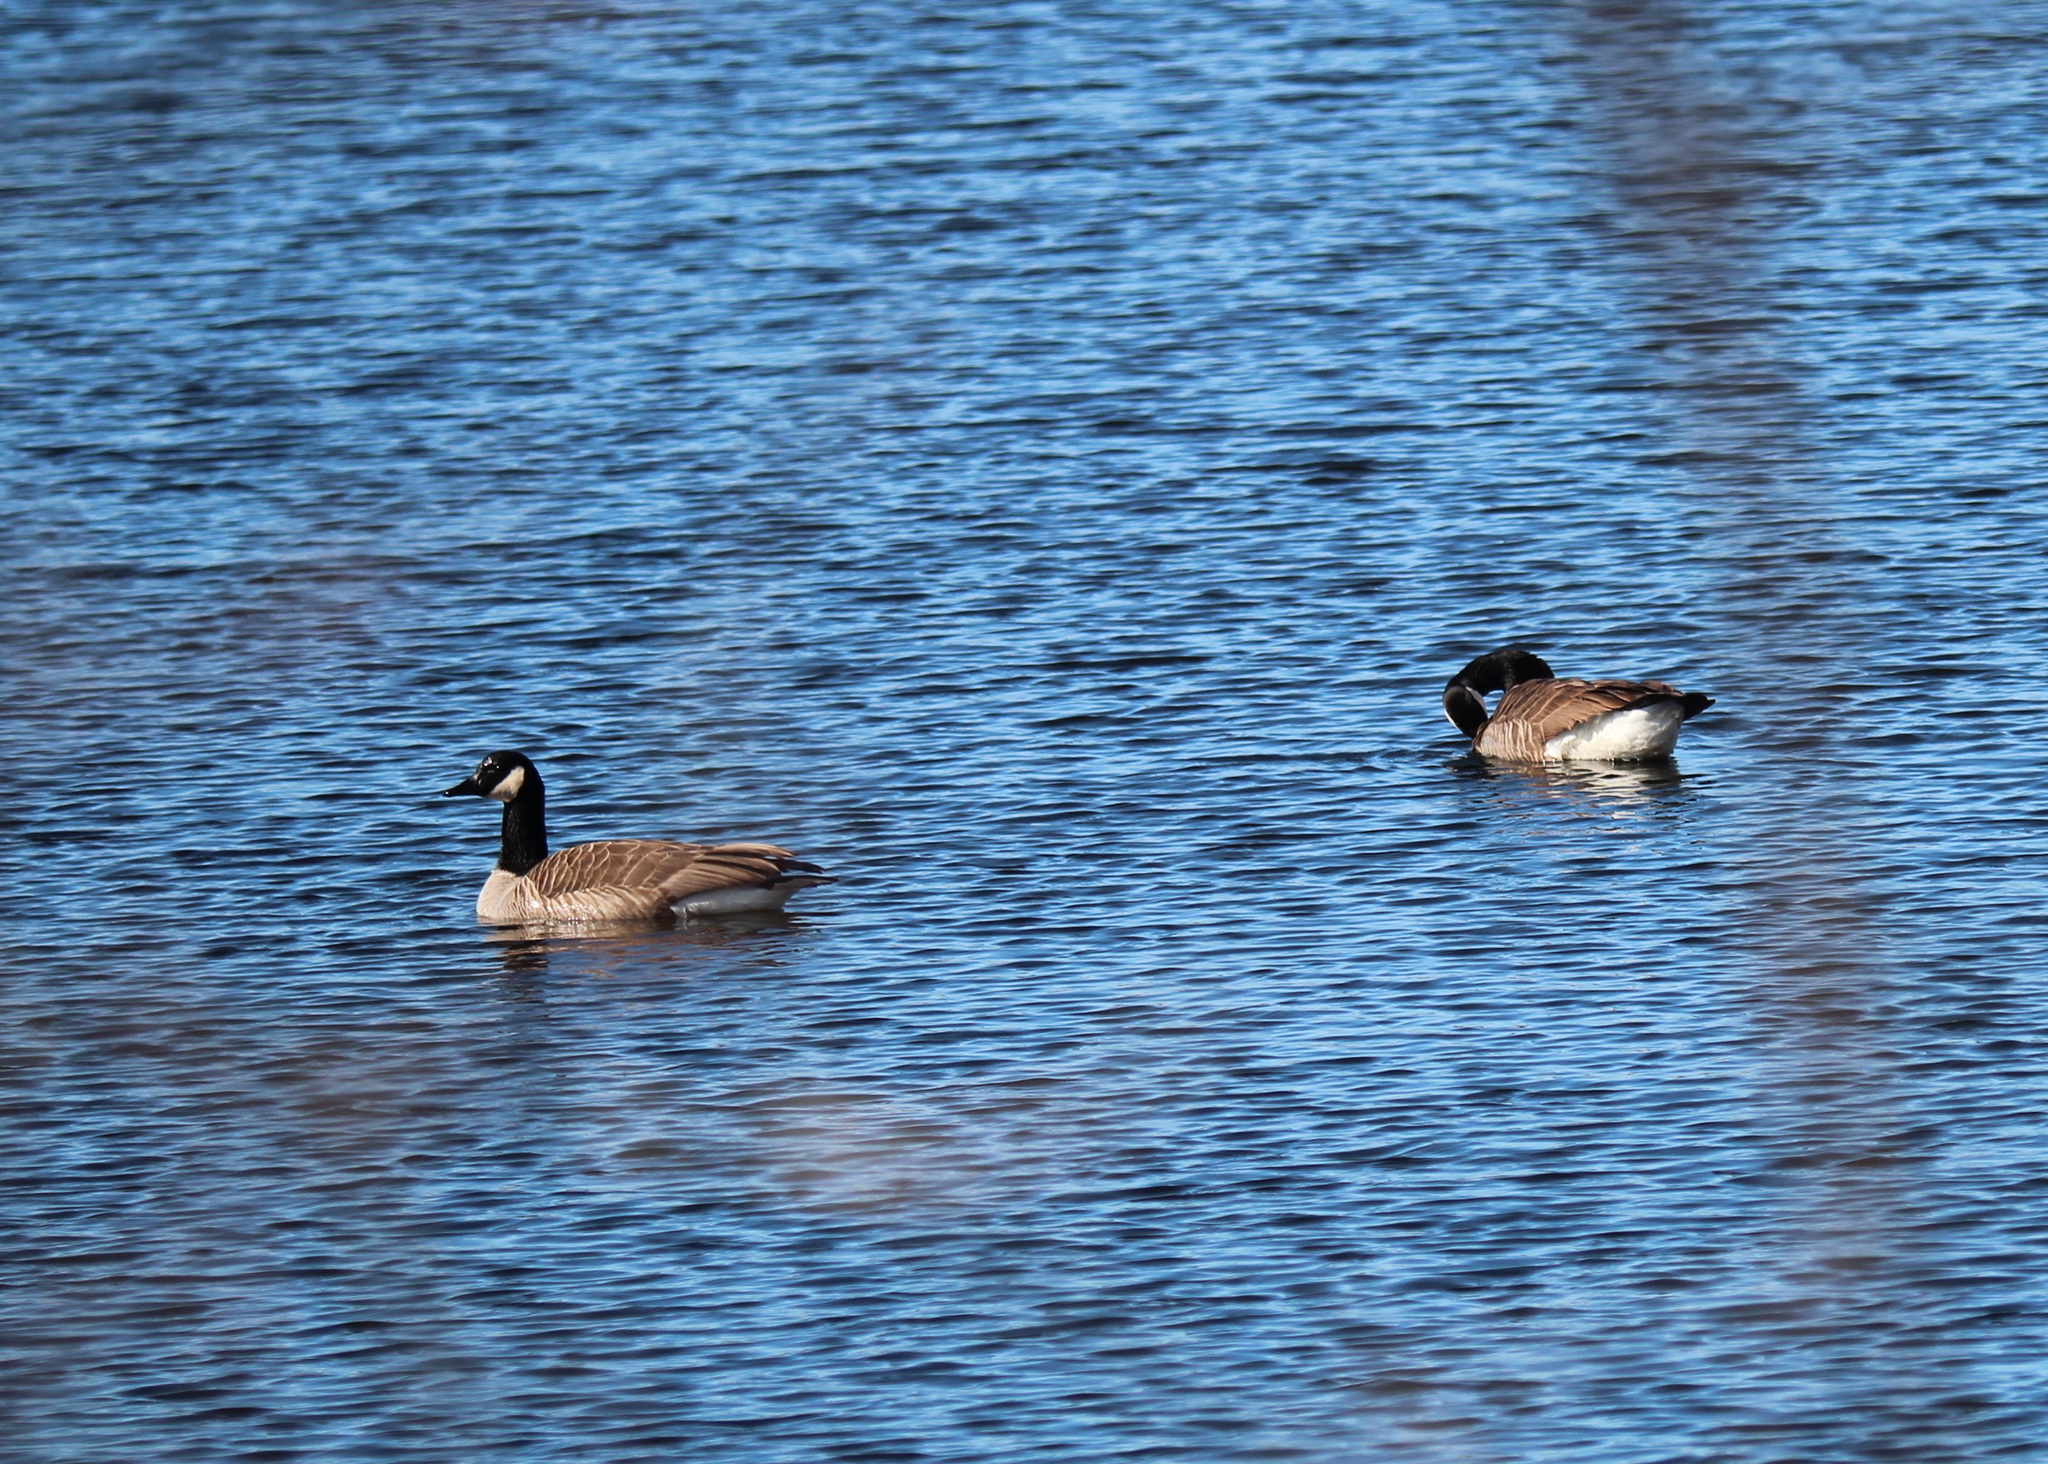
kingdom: Animalia
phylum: Chordata
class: Aves
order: Anseriformes
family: Anatidae
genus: Branta
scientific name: Branta canadensis
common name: Canada goose
